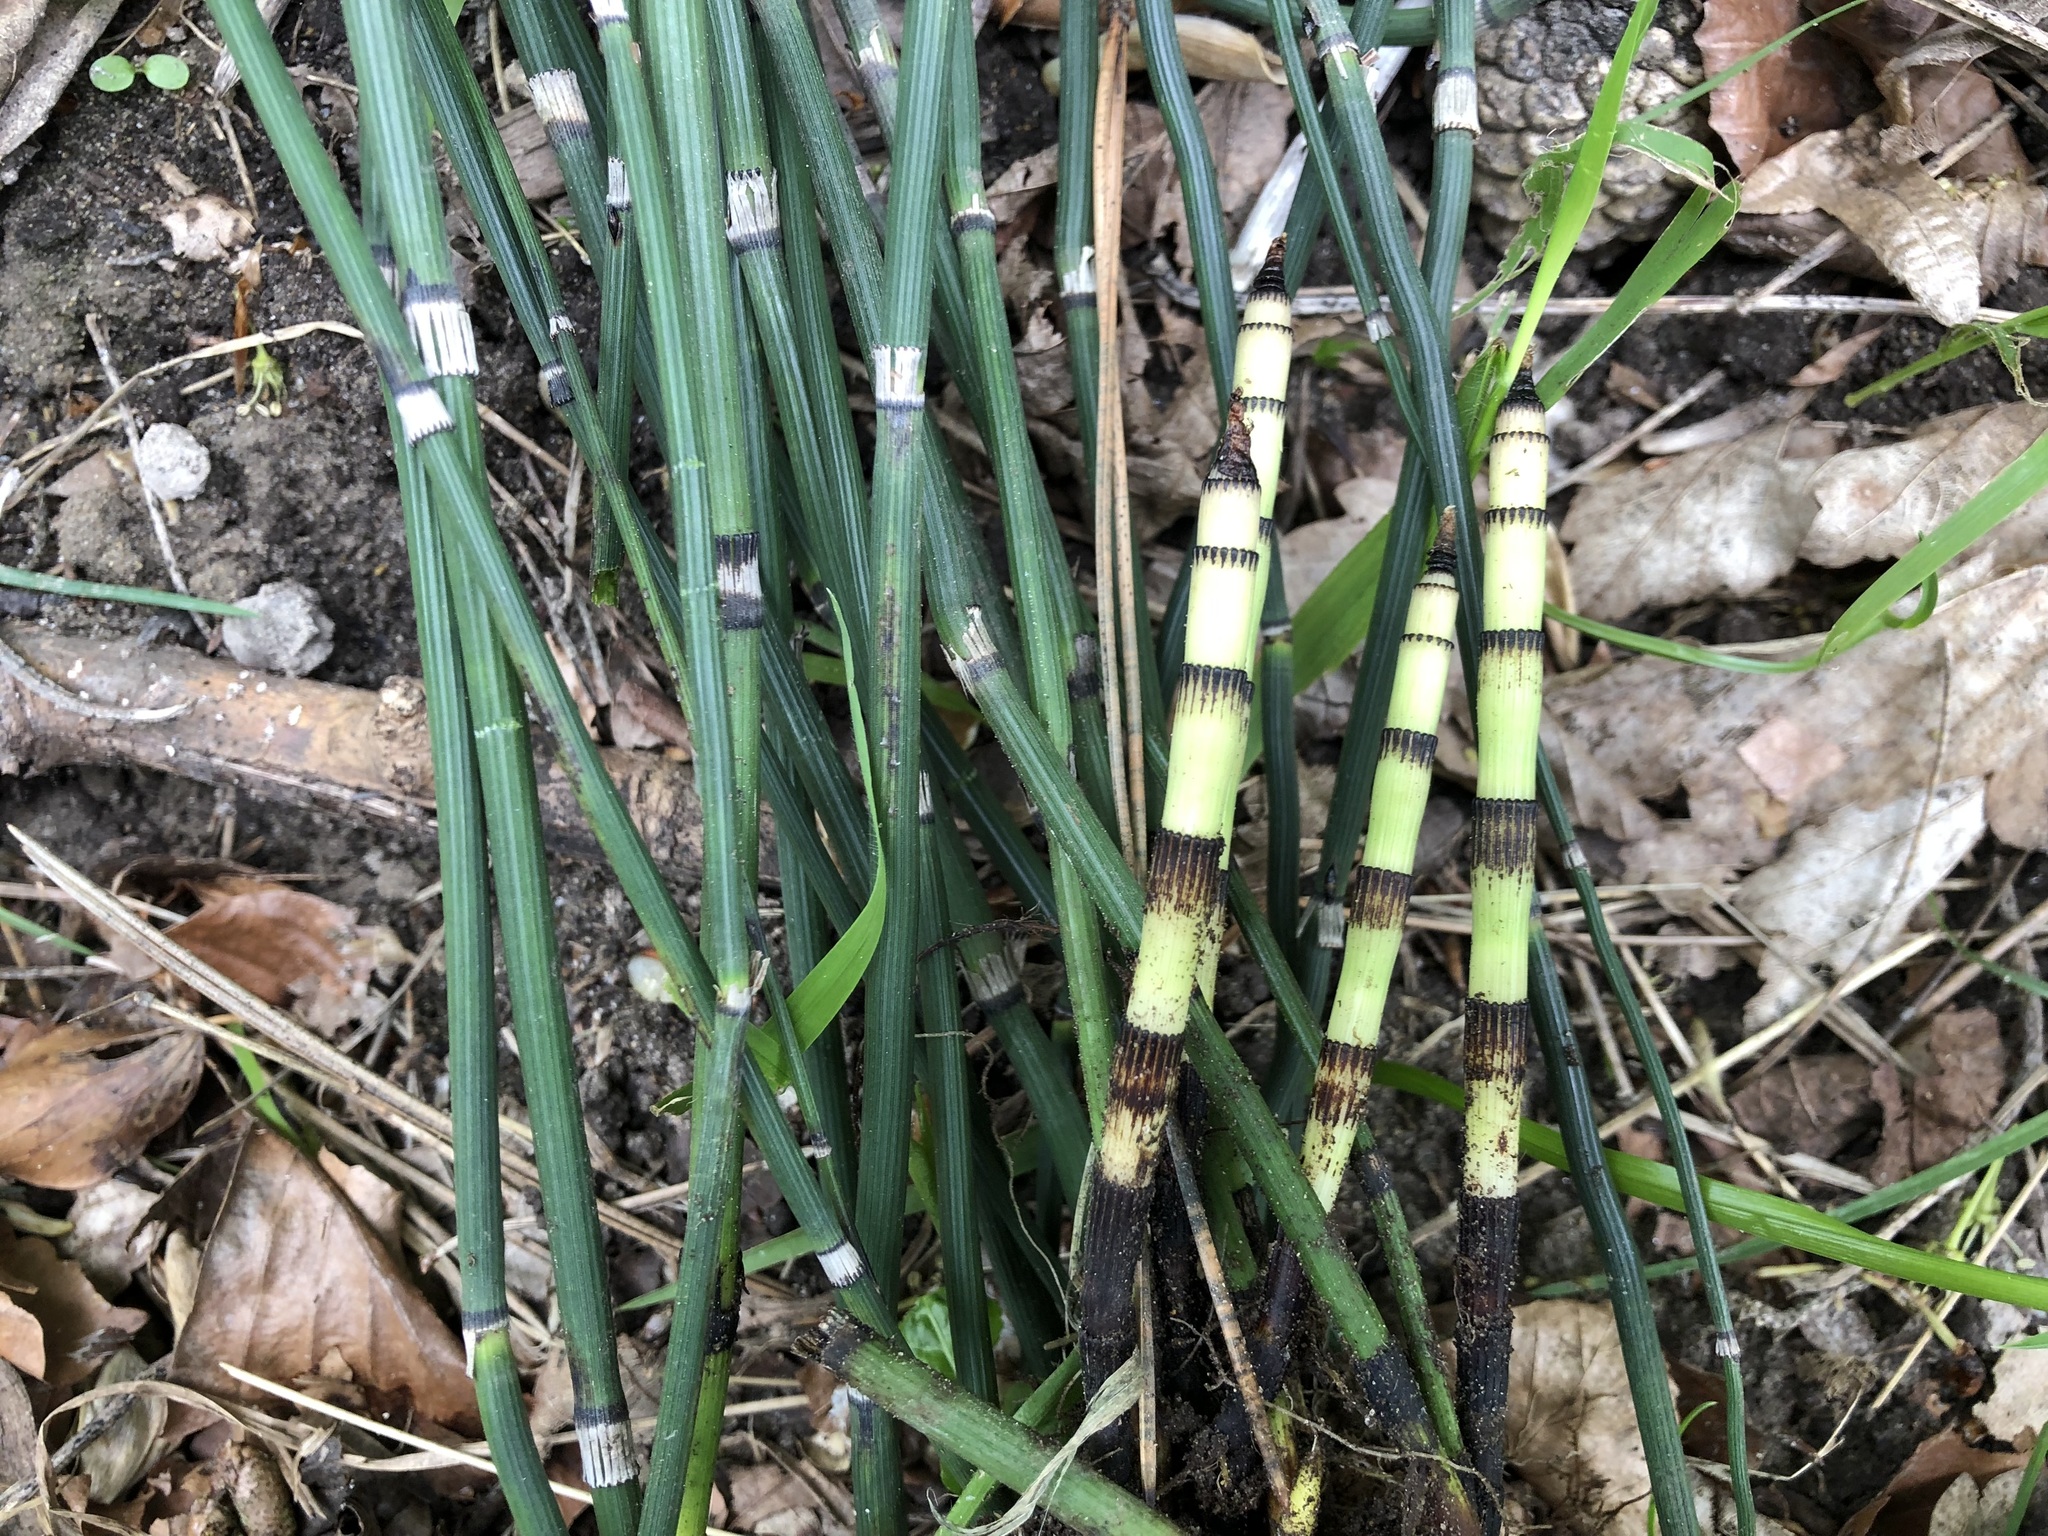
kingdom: Plantae
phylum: Tracheophyta
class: Polypodiopsida
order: Equisetales
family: Equisetaceae
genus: Equisetum
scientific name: Equisetum hyemale
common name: Rough horsetail
